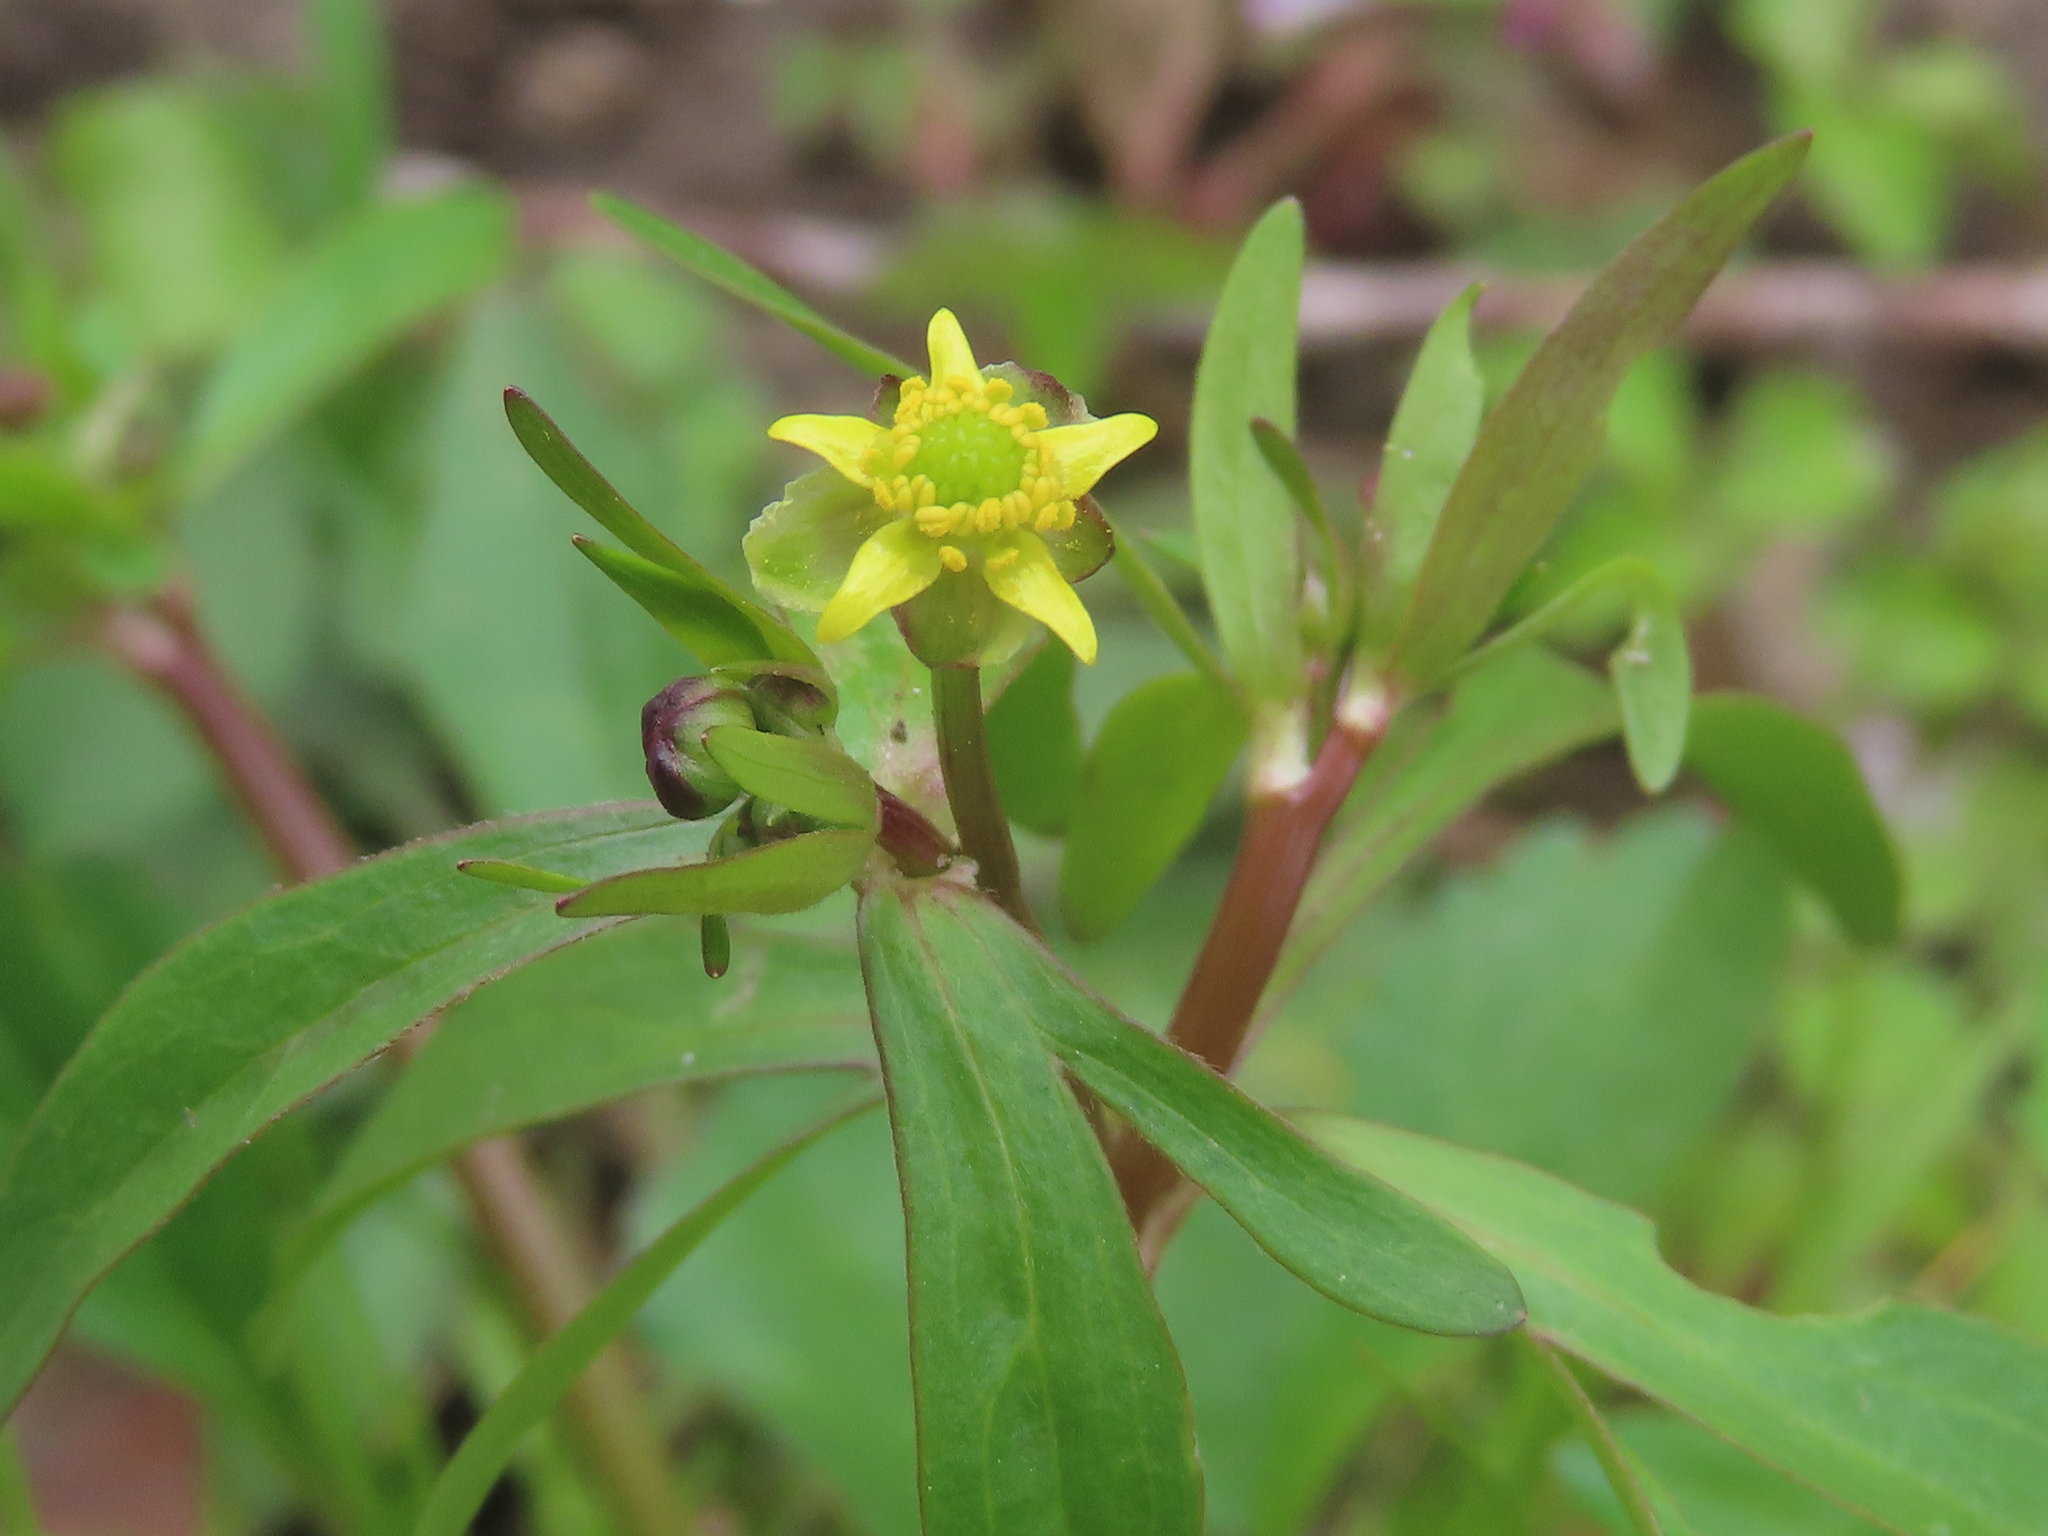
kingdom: Plantae
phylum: Tracheophyta
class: Magnoliopsida
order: Ranunculales
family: Ranunculaceae
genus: Ranunculus
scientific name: Ranunculus abortivus
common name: Early wood buttercup
